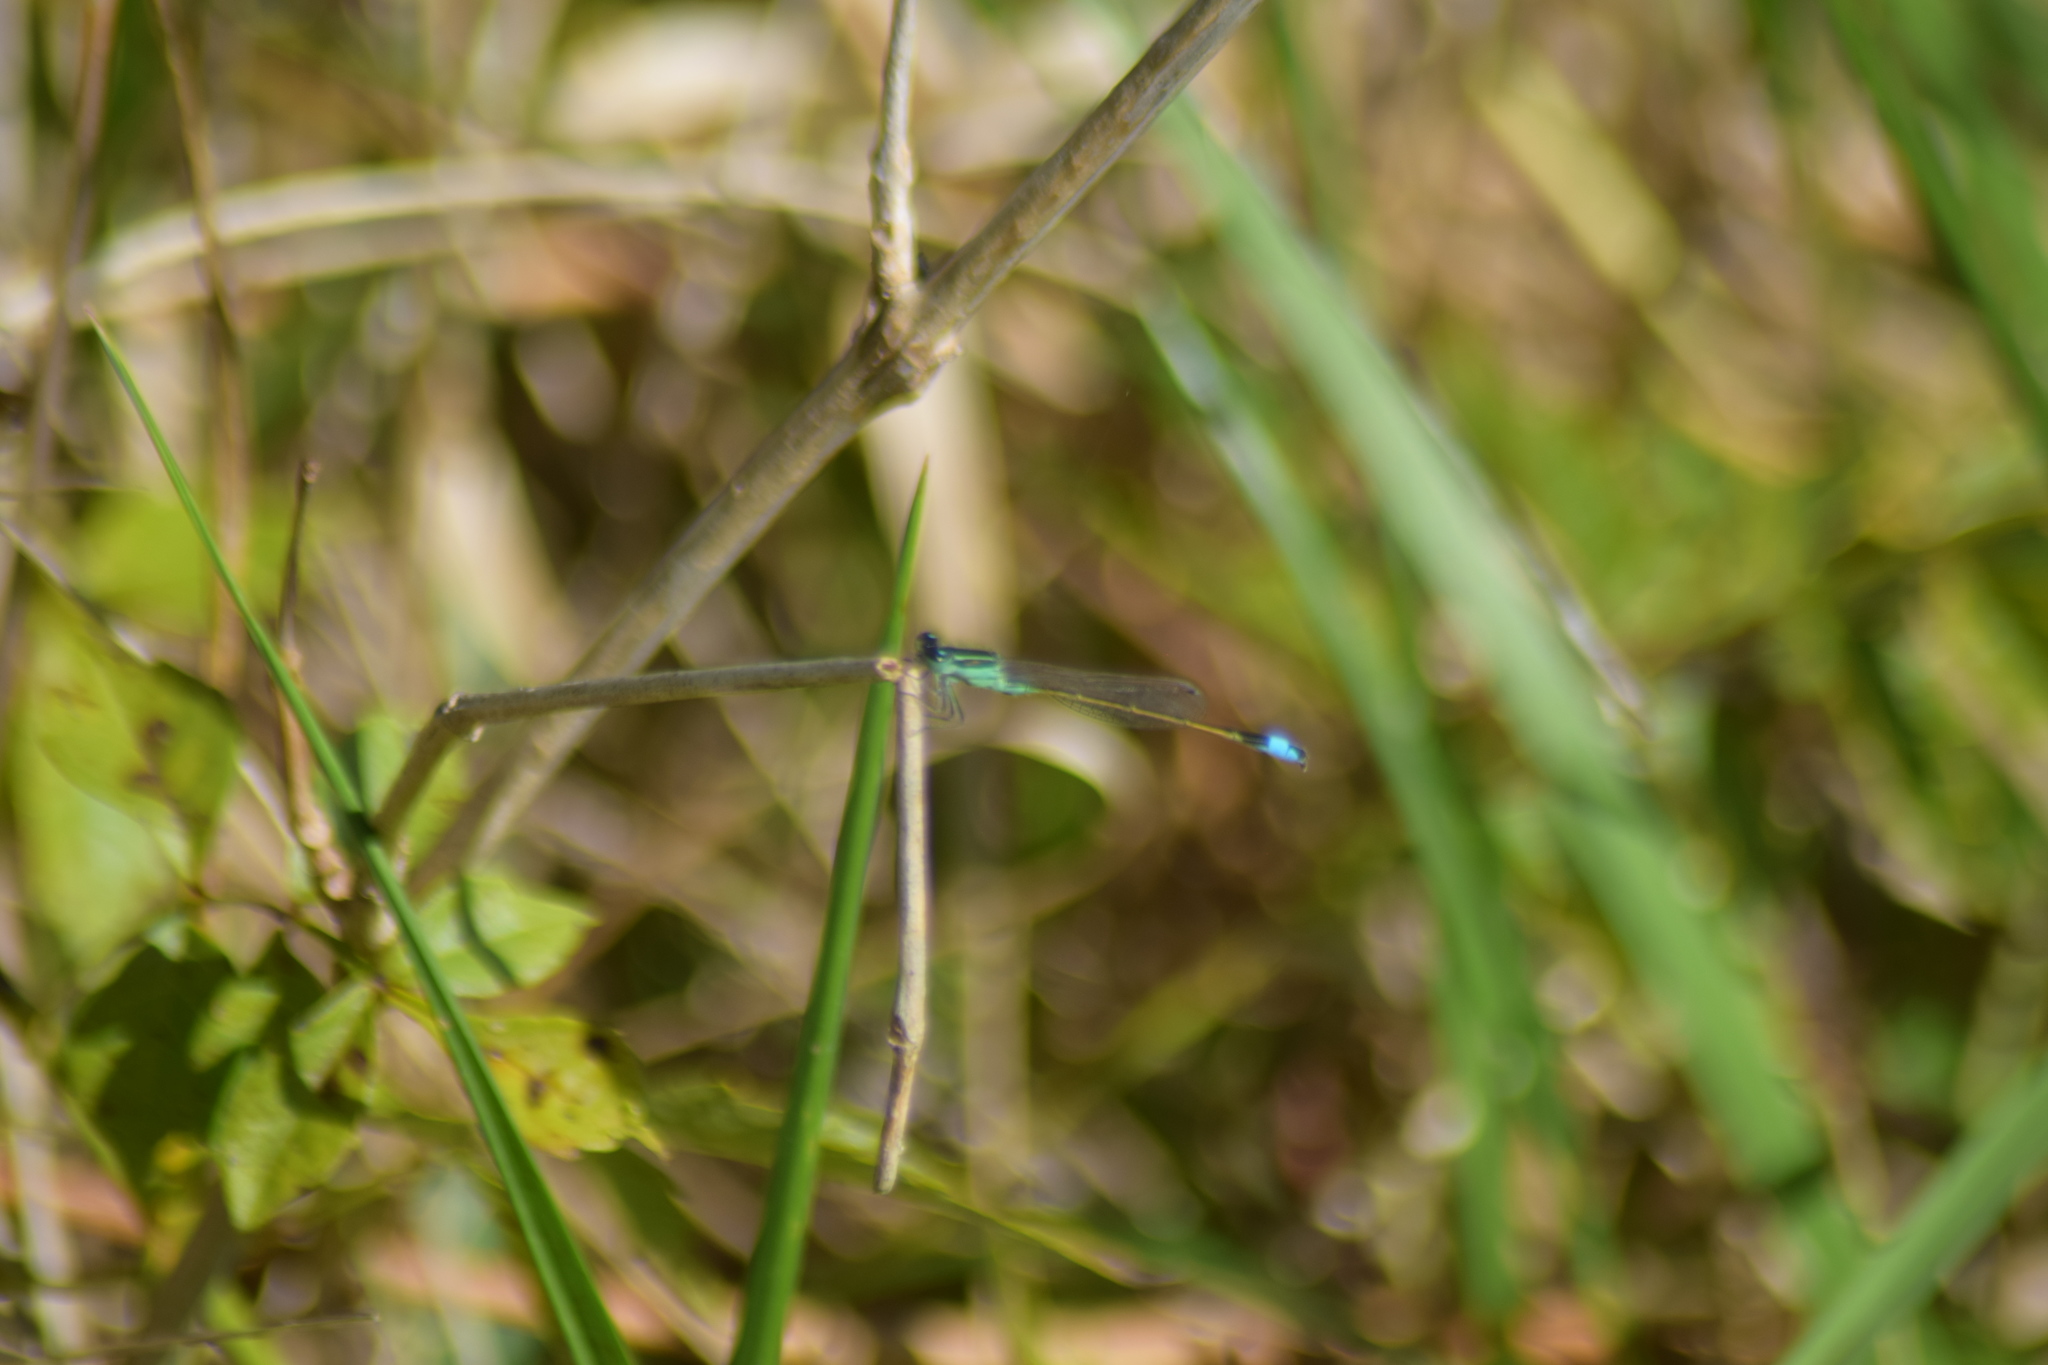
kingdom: Animalia
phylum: Arthropoda
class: Insecta
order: Odonata
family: Coenagrionidae
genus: Ischnura
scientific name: Ischnura ramburii
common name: Rambur's forktail
